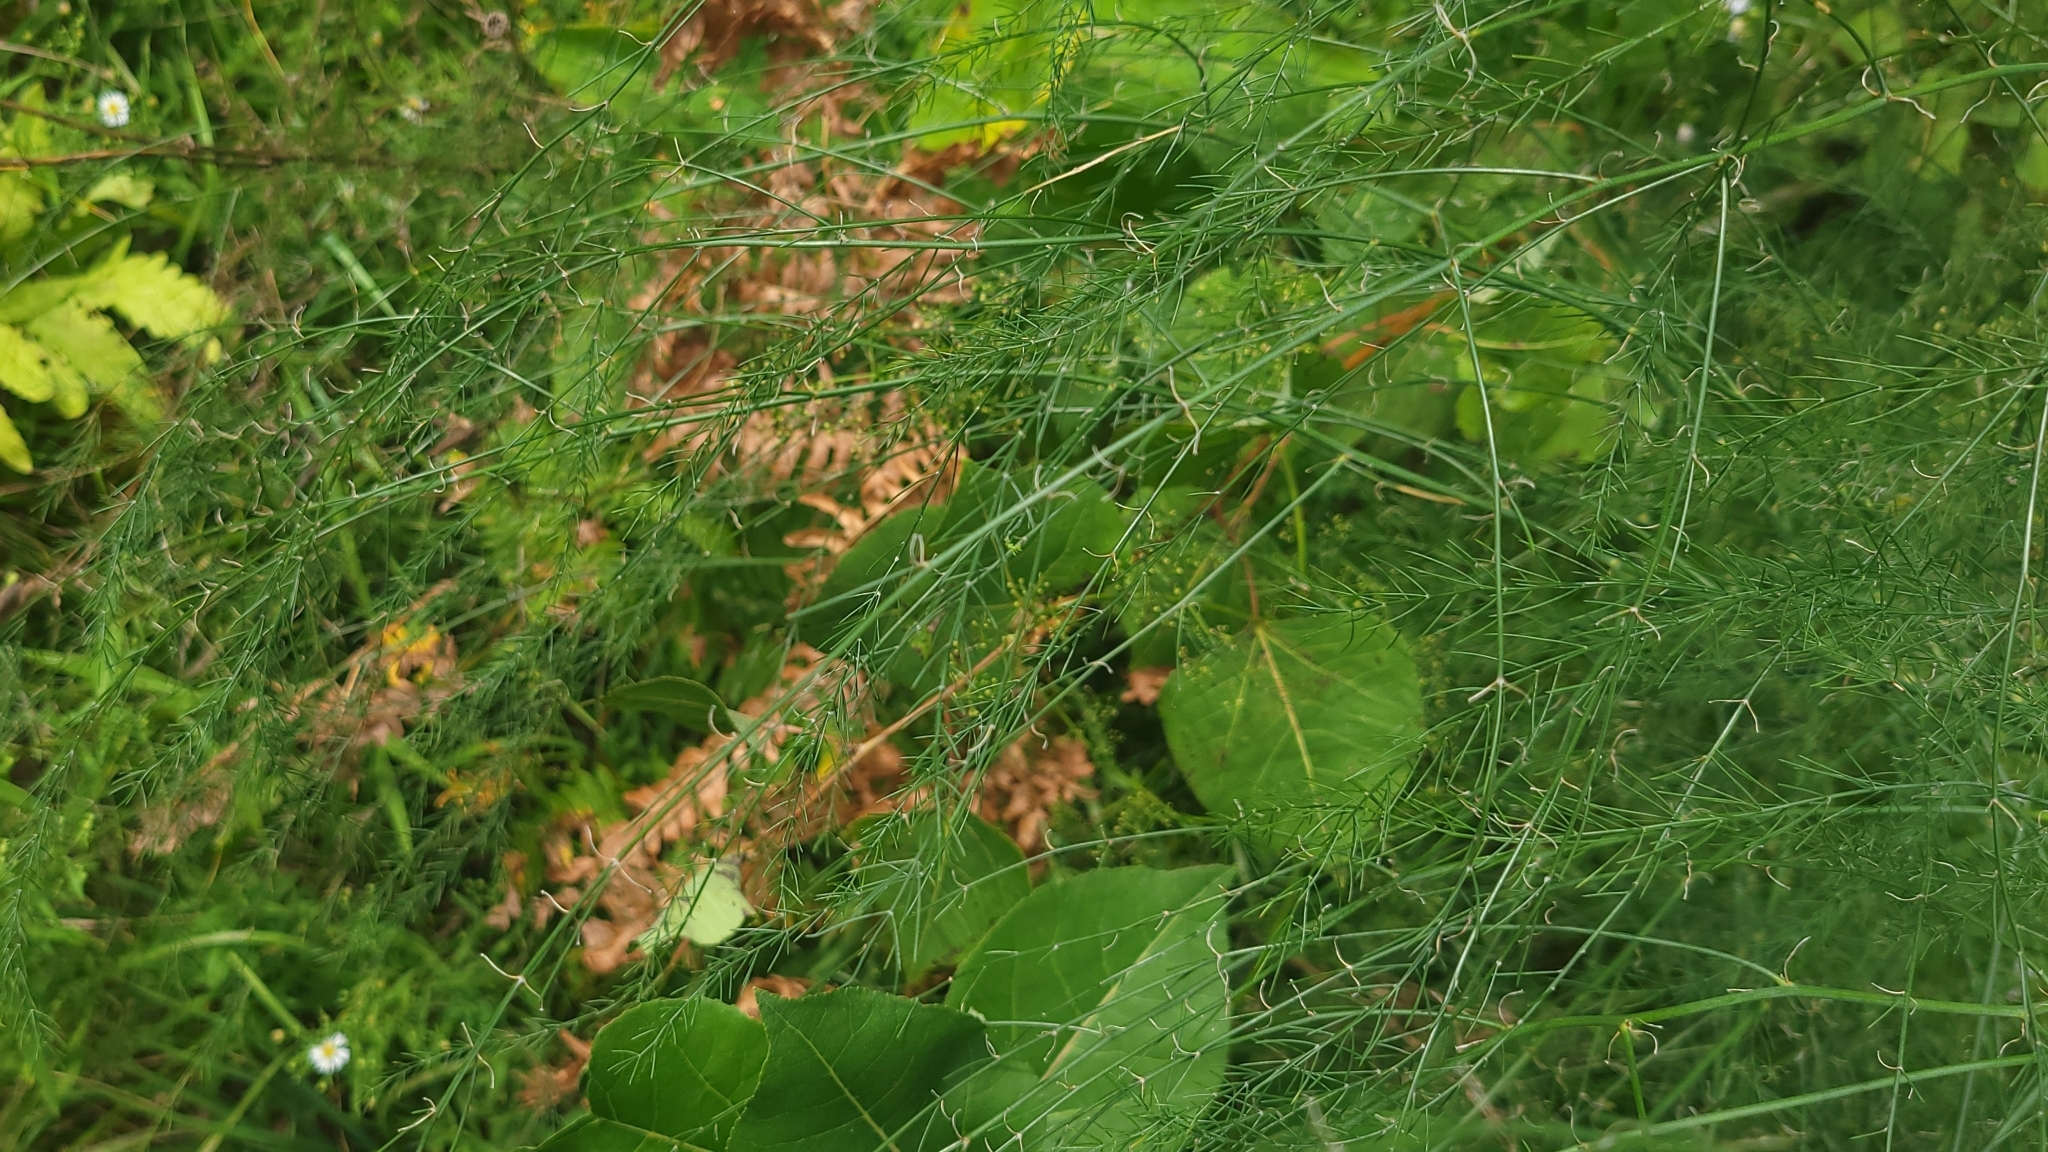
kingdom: Plantae
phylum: Tracheophyta
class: Liliopsida
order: Asparagales
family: Asparagaceae
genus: Asparagus
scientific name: Asparagus officinalis
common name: Garden asparagus
